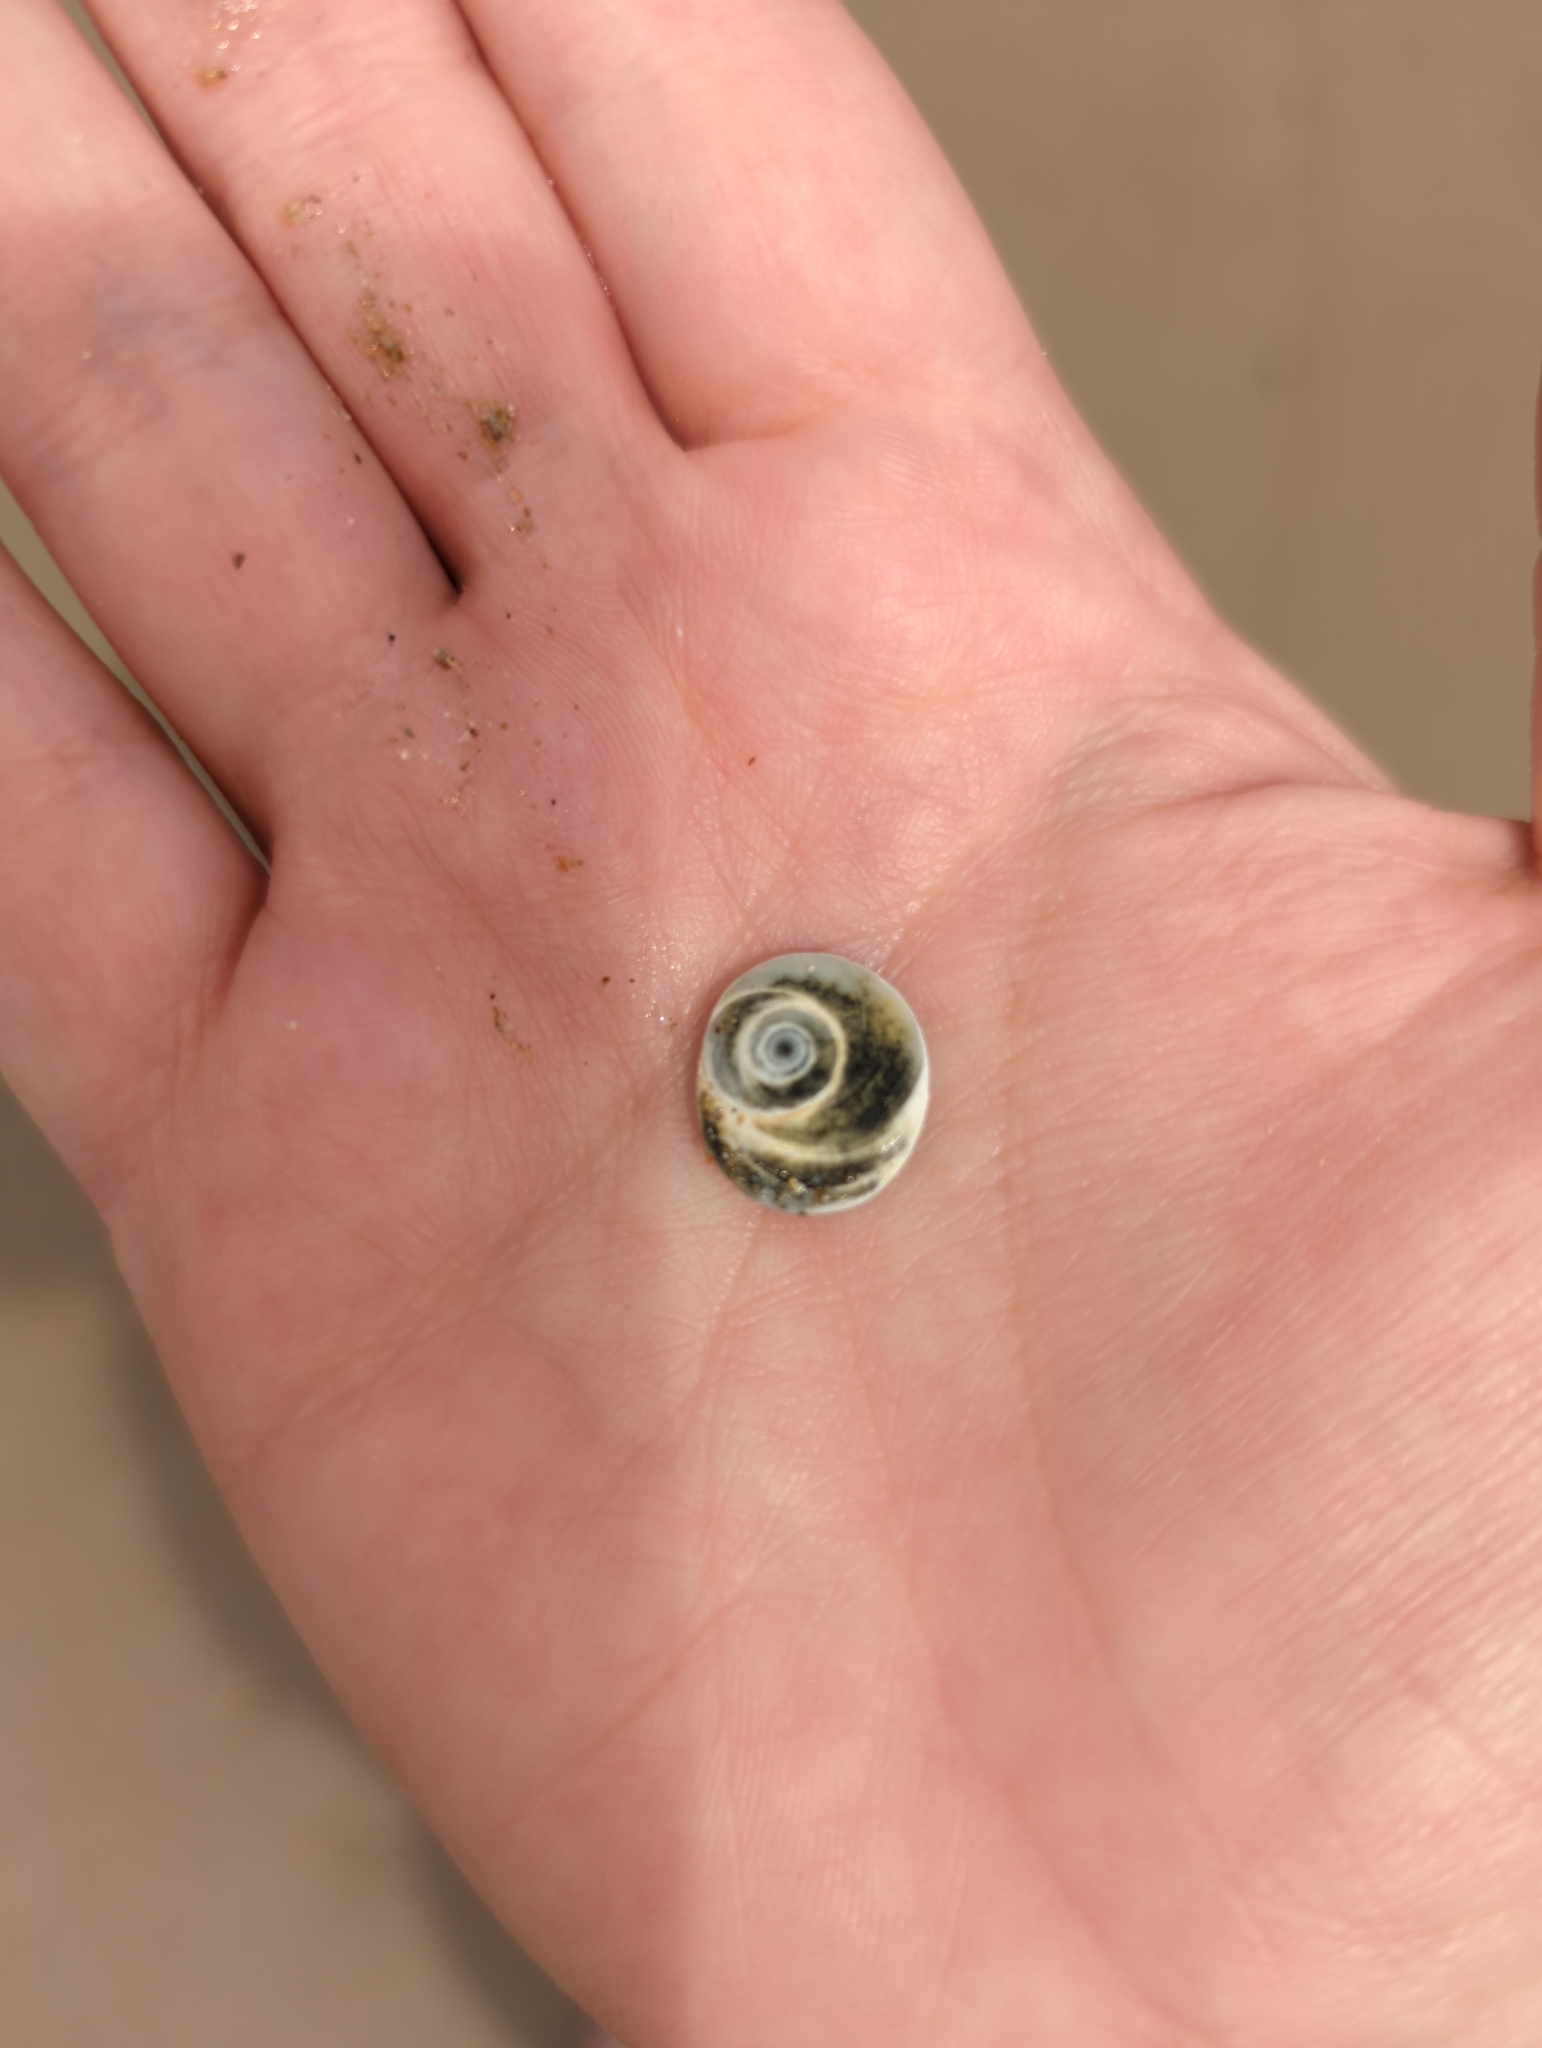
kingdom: Animalia
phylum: Mollusca
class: Gastropoda
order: Trochida
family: Turbinidae
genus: Lunella
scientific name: Lunella undulata
